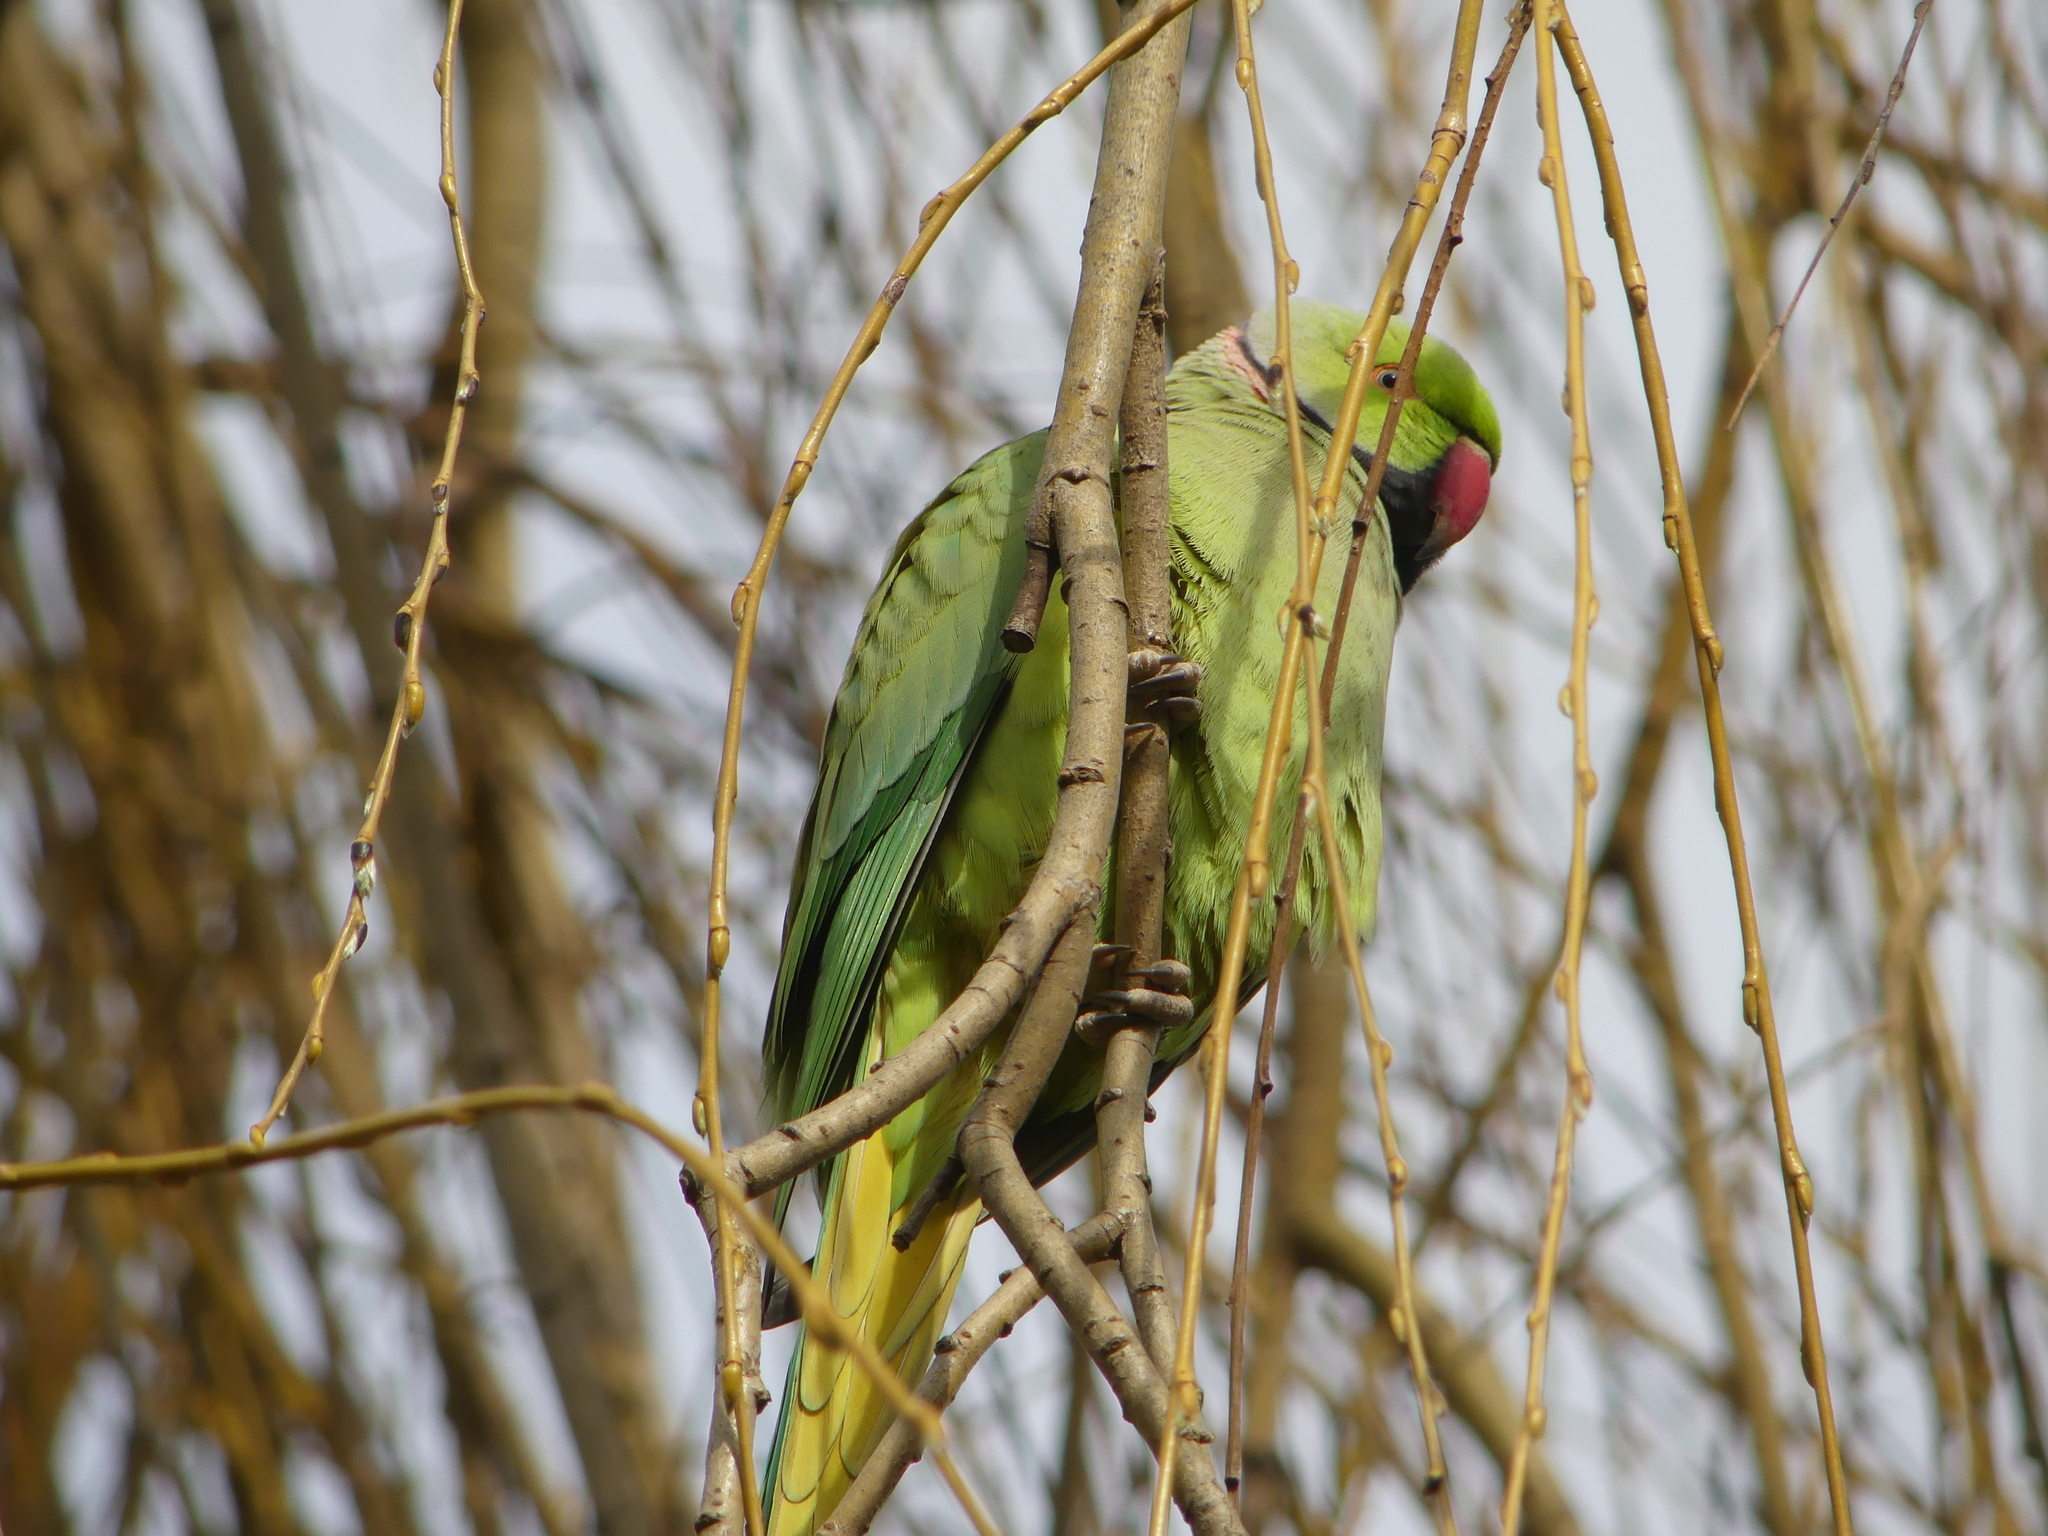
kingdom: Animalia
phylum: Chordata
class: Aves
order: Psittaciformes
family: Psittacidae
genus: Psittacula
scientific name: Psittacula krameri
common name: Rose-ringed parakeet
